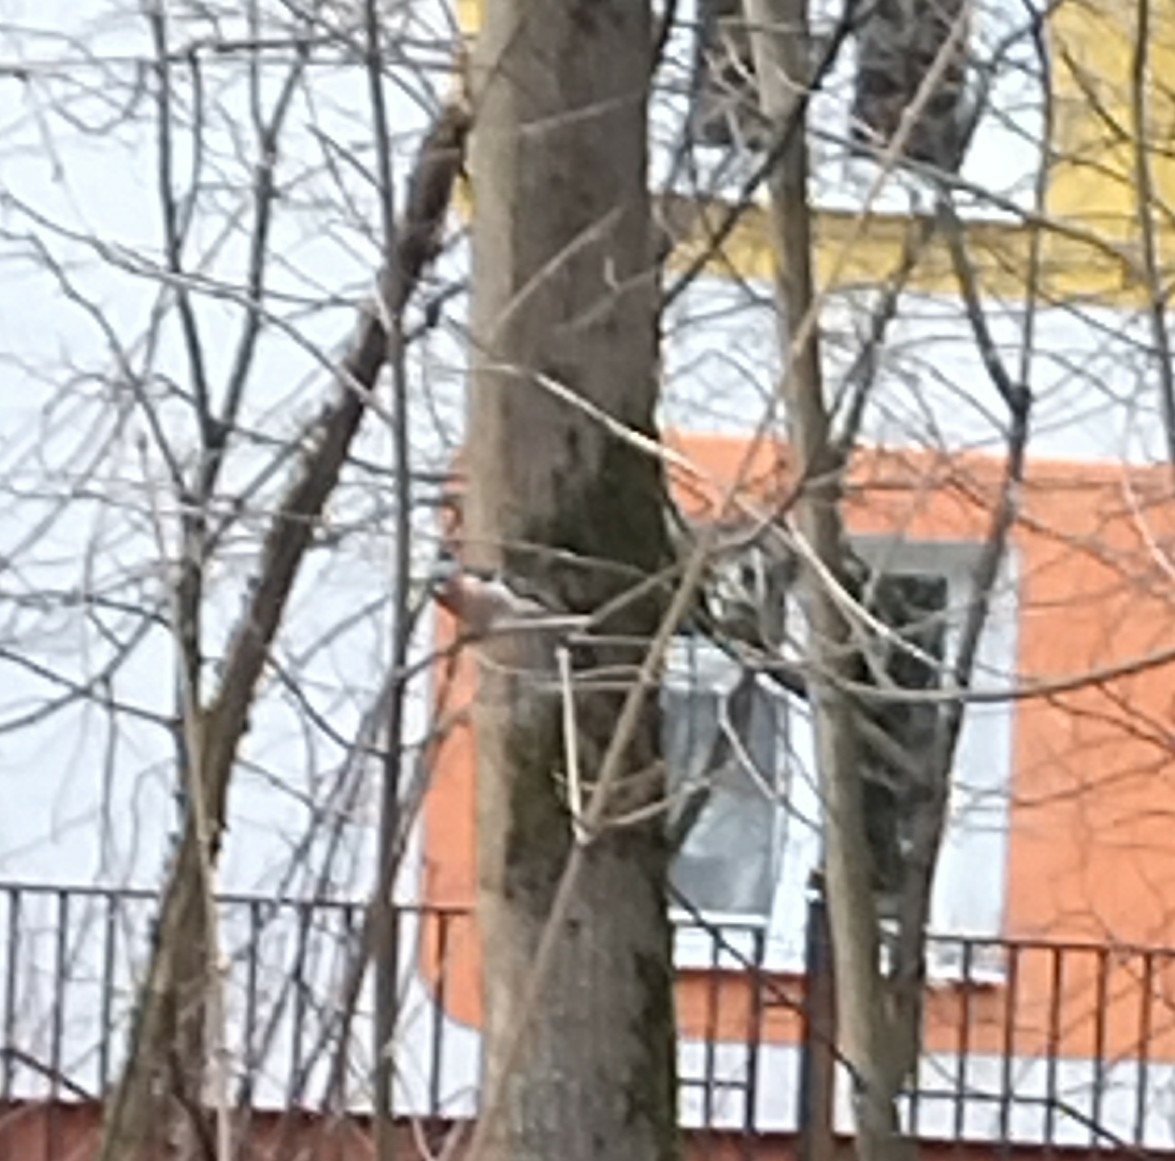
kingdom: Animalia
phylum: Chordata
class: Aves
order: Passeriformes
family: Fringillidae
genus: Fringilla
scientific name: Fringilla coelebs
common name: Common chaffinch
